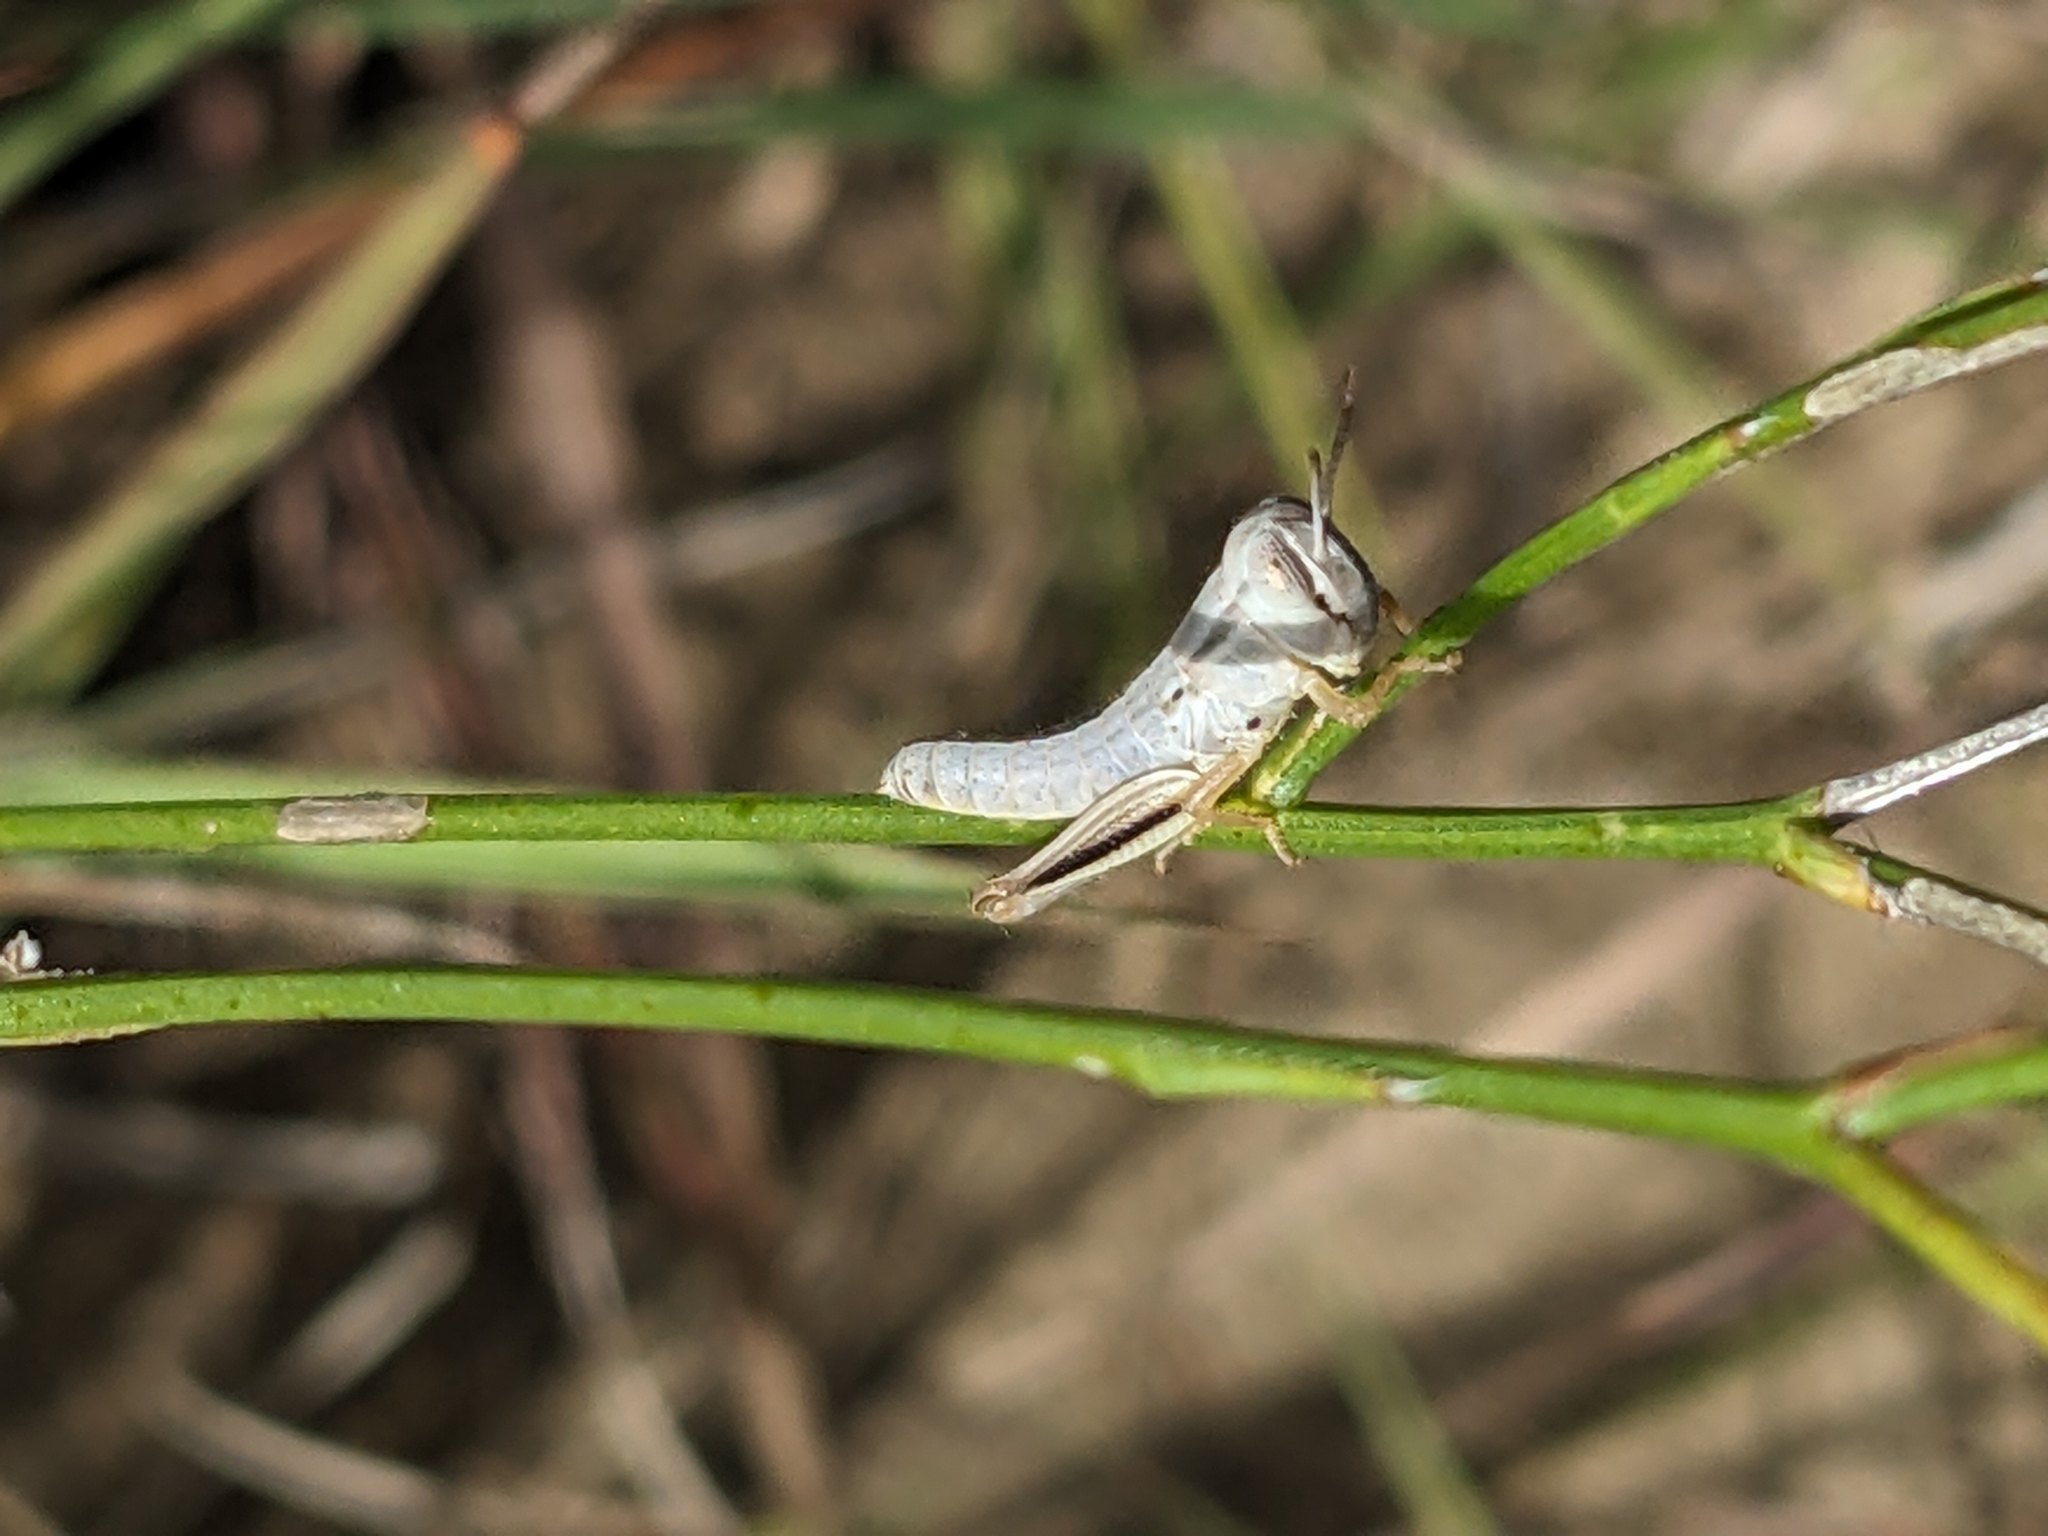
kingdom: Animalia
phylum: Arthropoda
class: Insecta
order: Orthoptera
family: Acrididae
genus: Phoetaliotes
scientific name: Phoetaliotes nebrascensis
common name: Large-headed grasshopper
